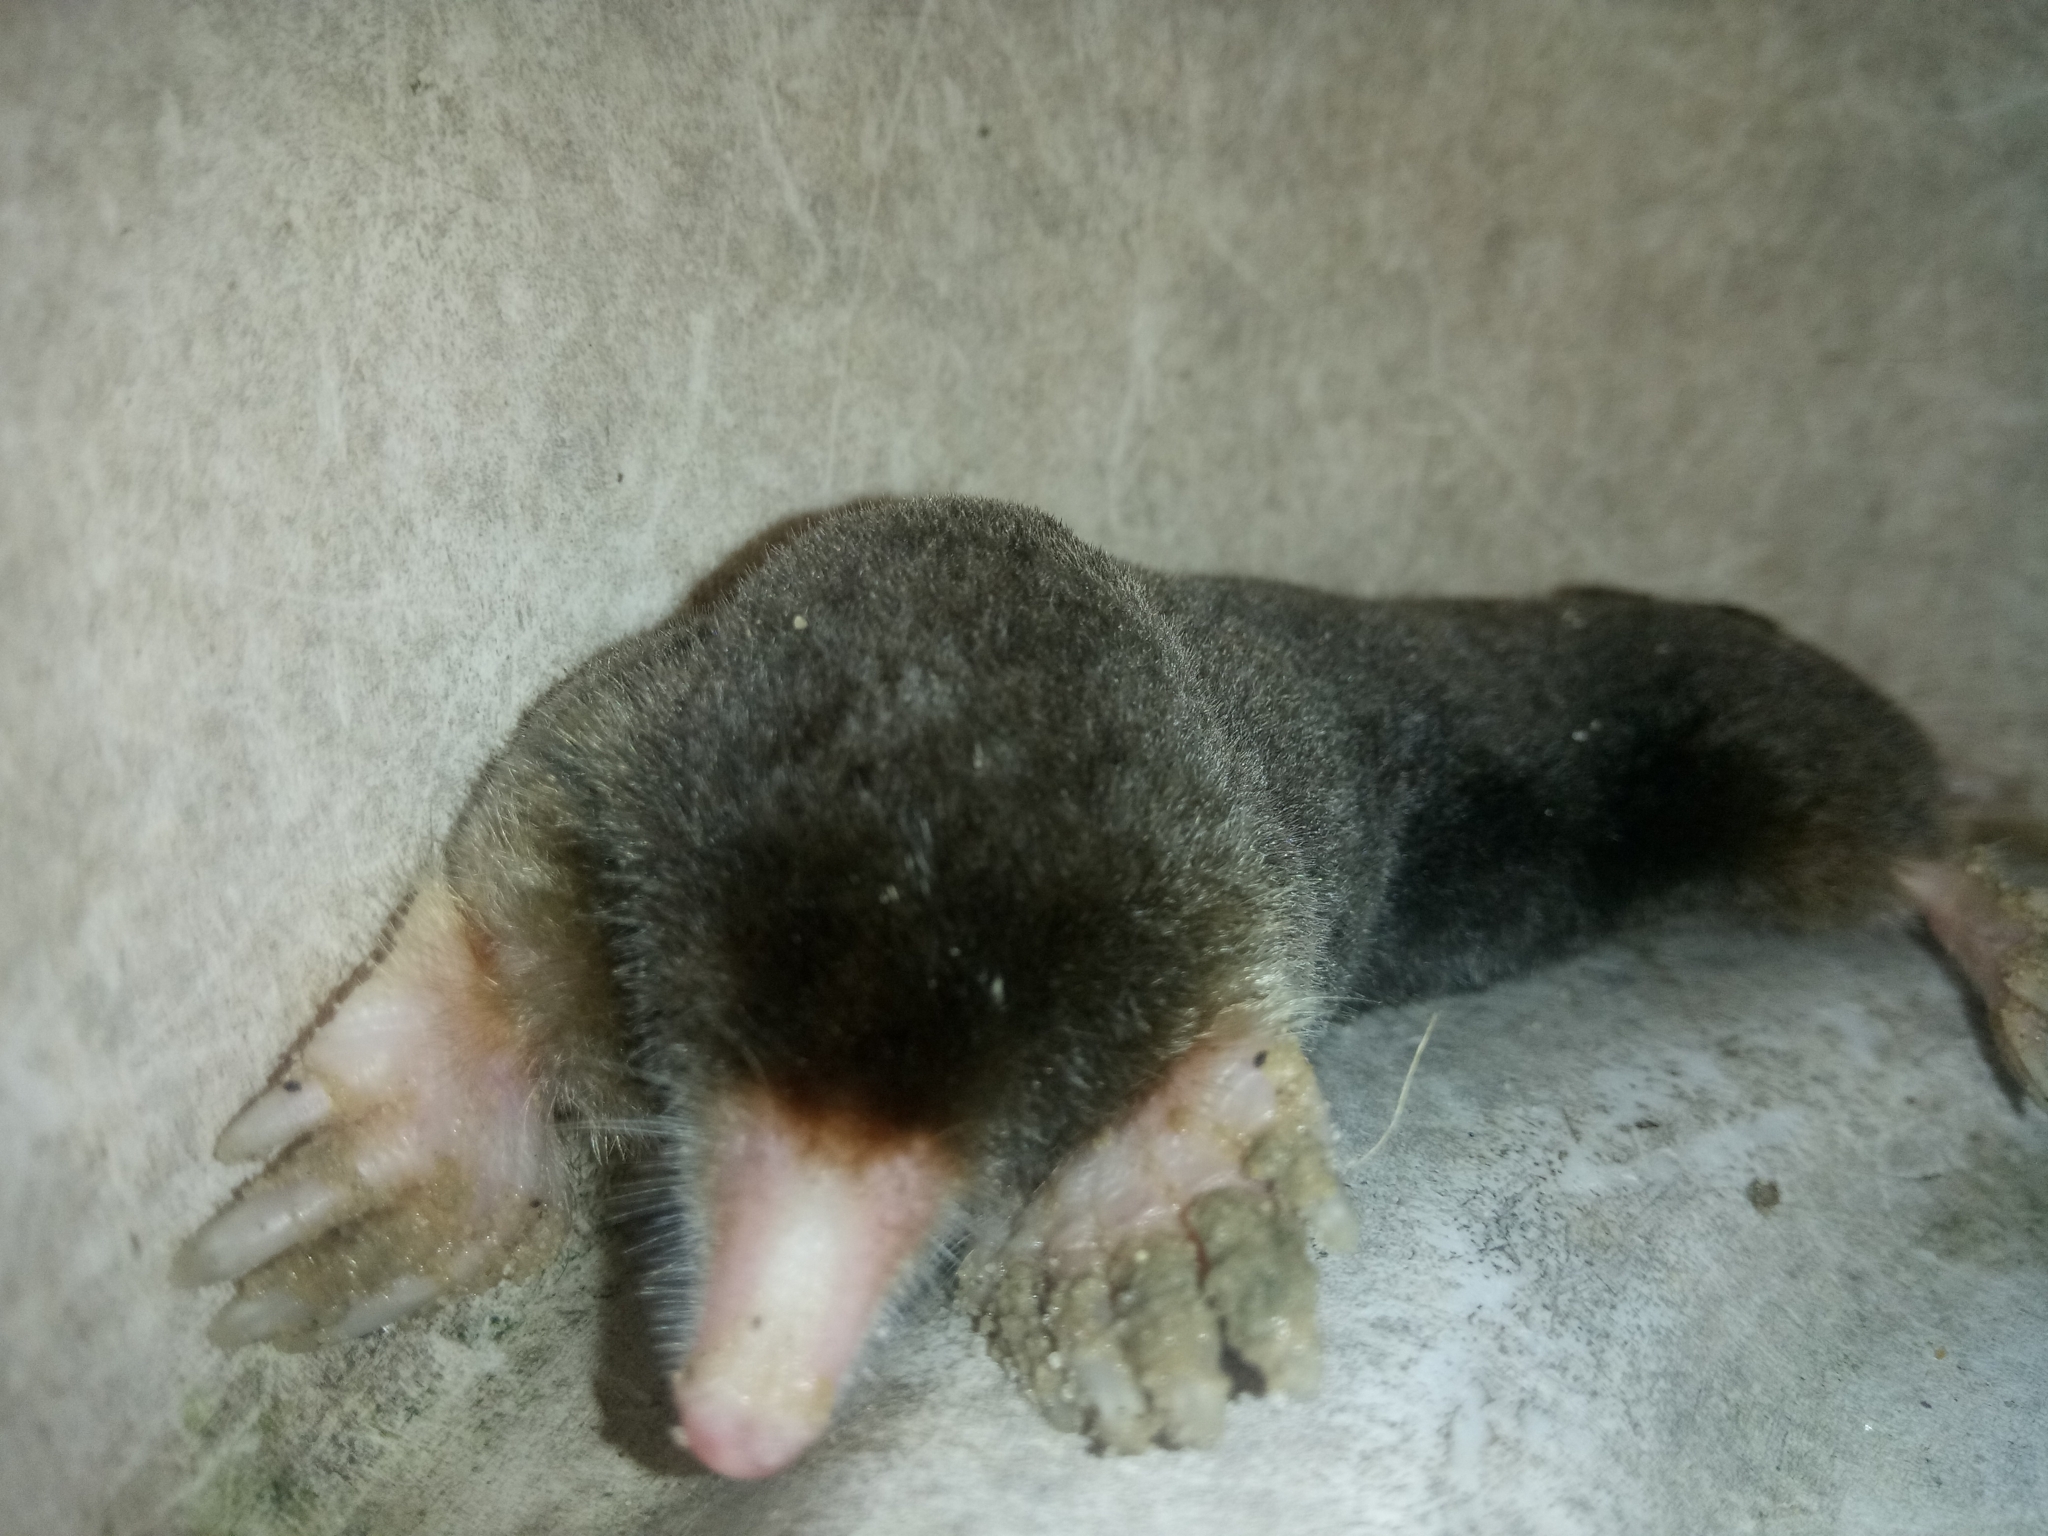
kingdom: Animalia
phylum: Chordata
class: Mammalia
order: Soricomorpha
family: Talpidae
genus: Parascaptor
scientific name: Parascaptor leucura
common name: White-tailed mole
